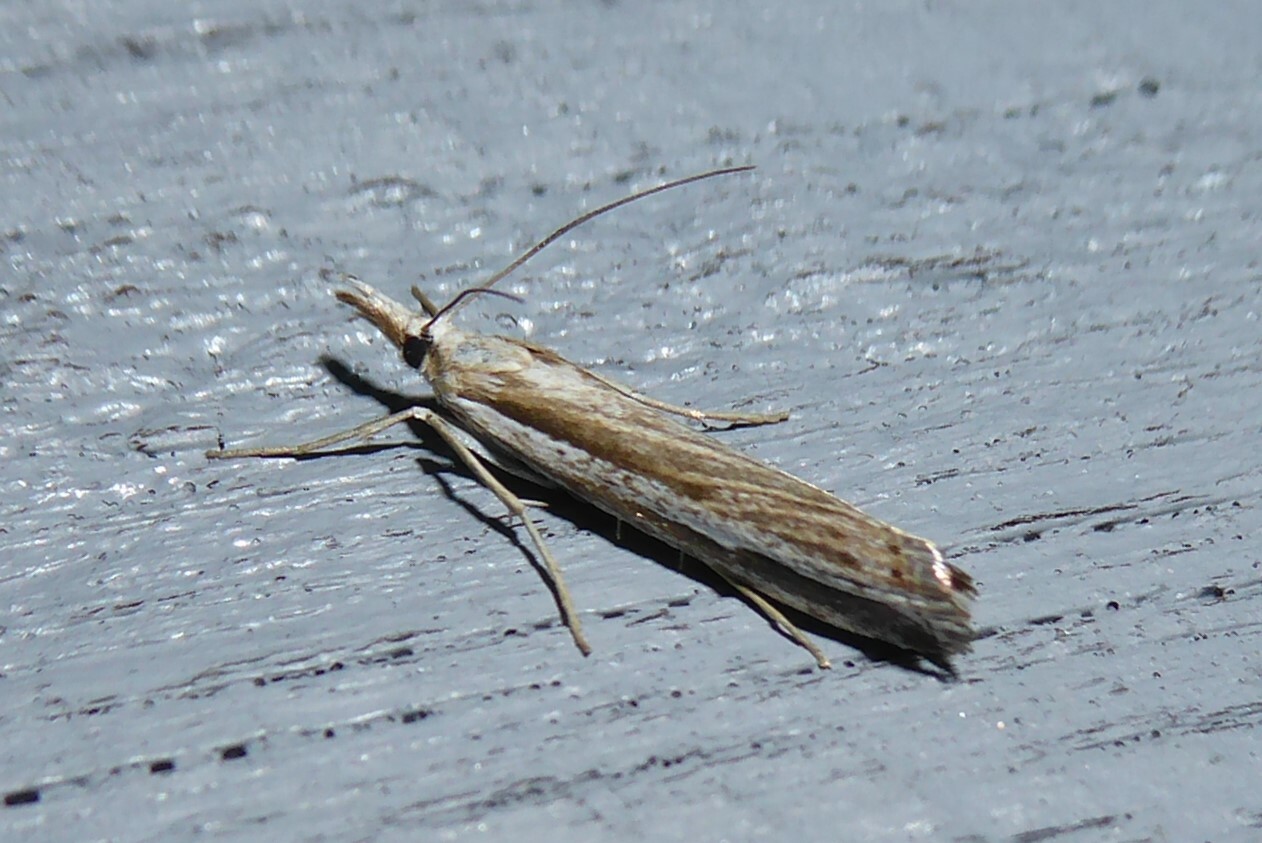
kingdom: Animalia
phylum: Arthropoda
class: Insecta
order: Lepidoptera
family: Crambidae
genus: Orocrambus
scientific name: Orocrambus vittellus
